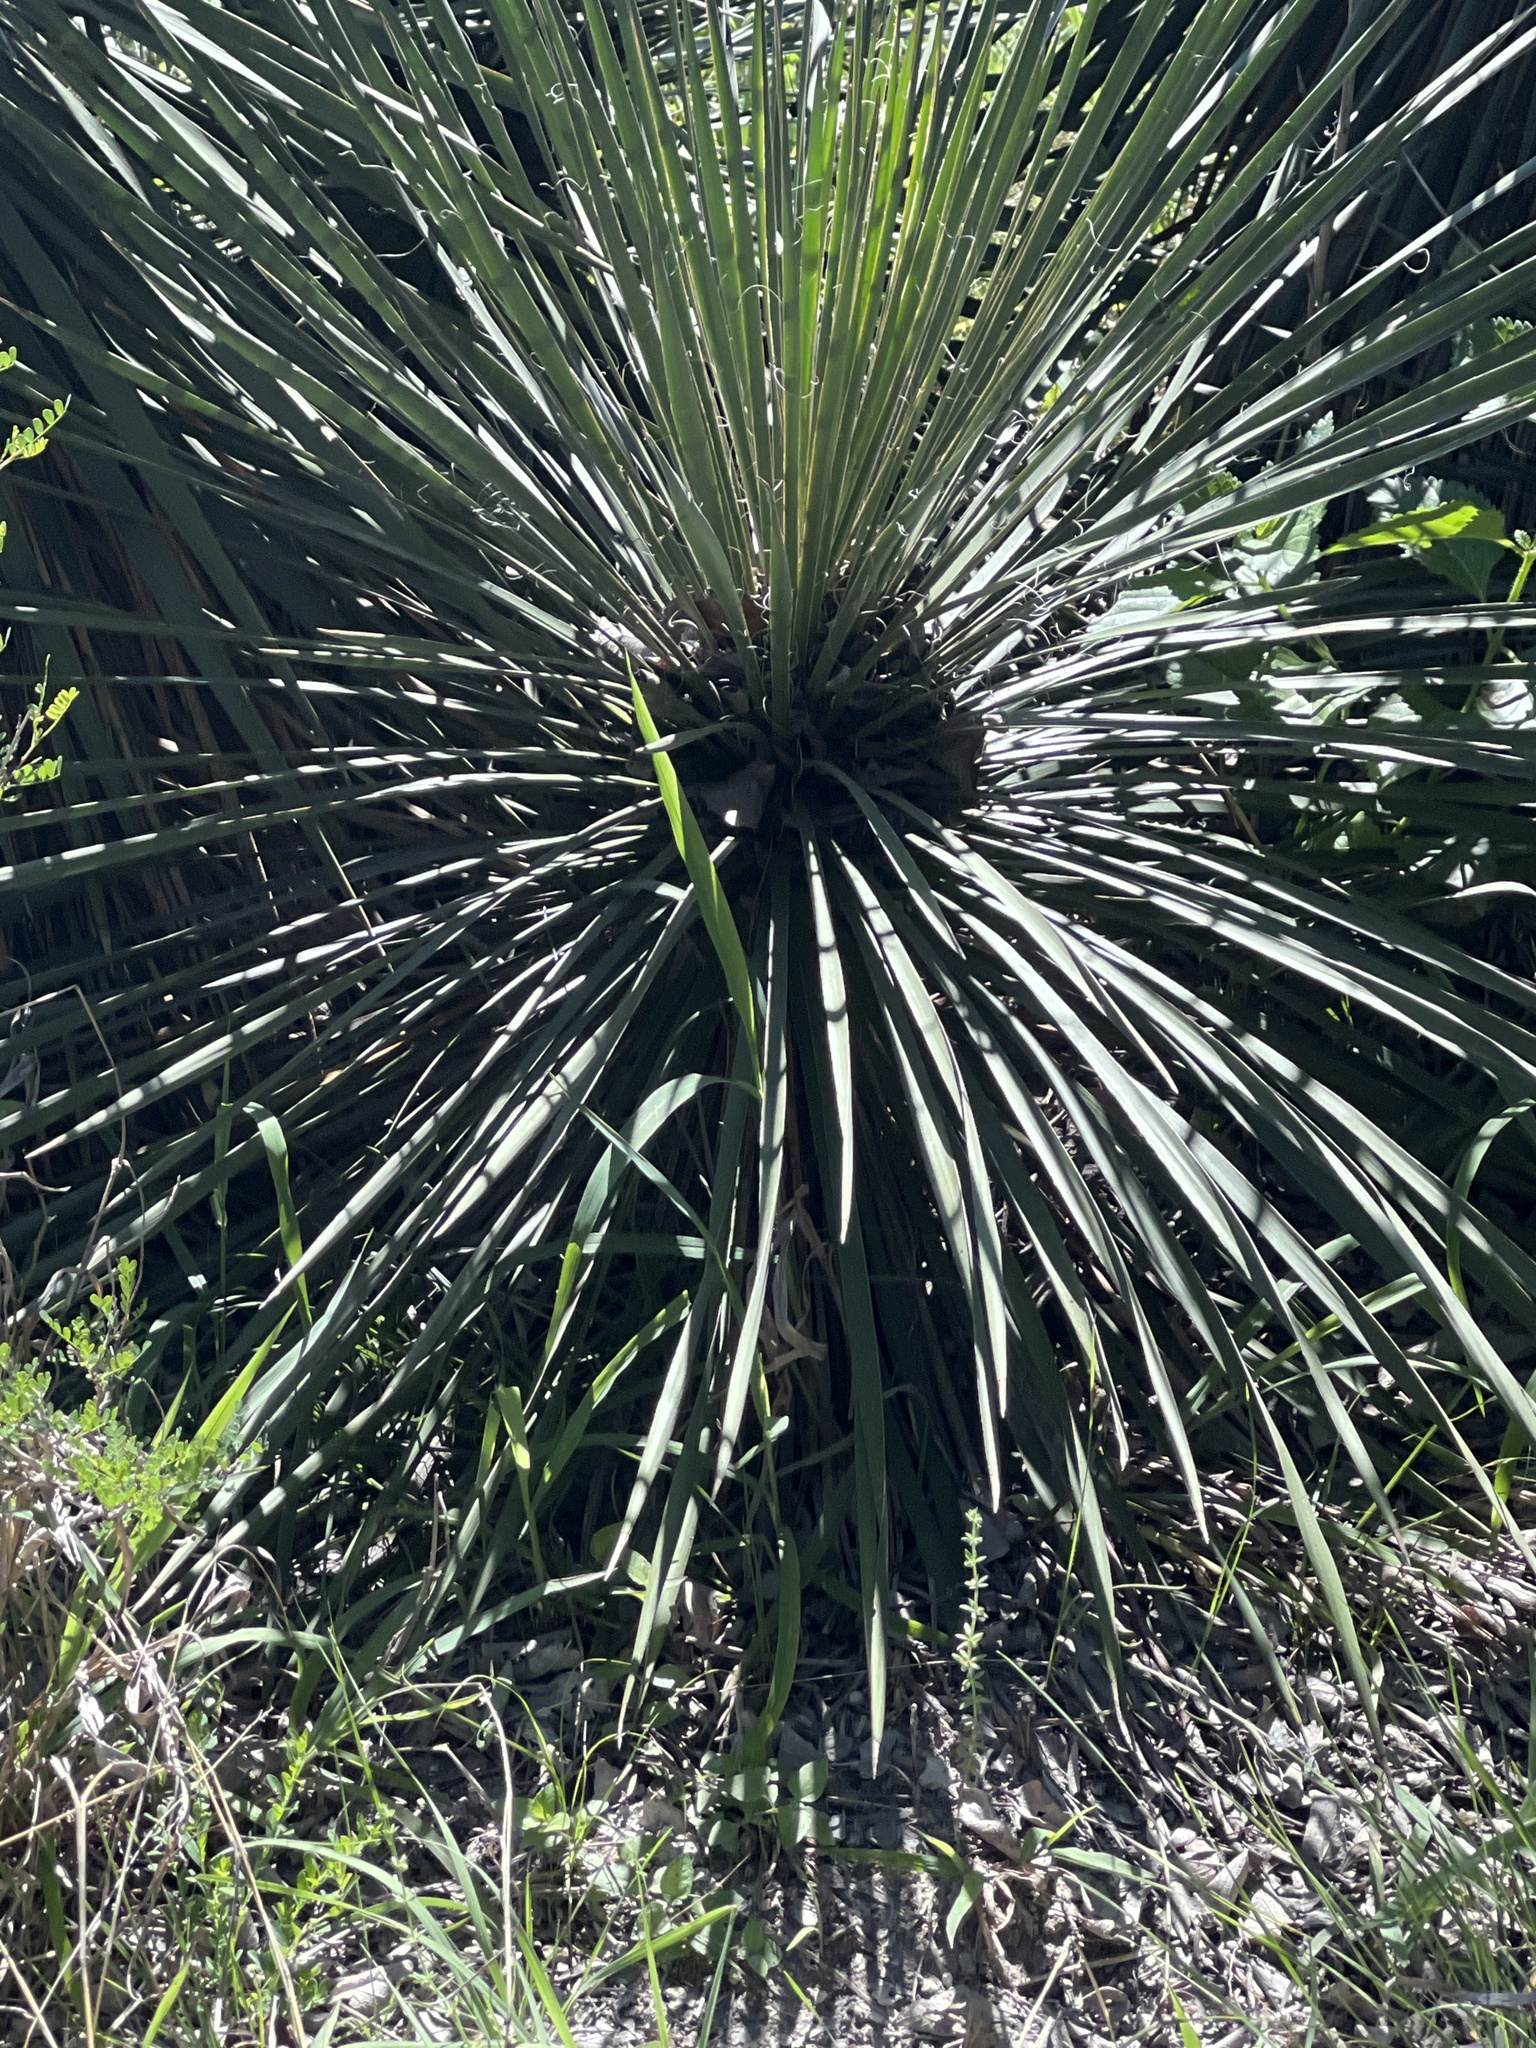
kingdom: Plantae
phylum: Tracheophyta
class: Liliopsida
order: Asparagales
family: Asparagaceae
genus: Yucca
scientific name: Yucca constricta
